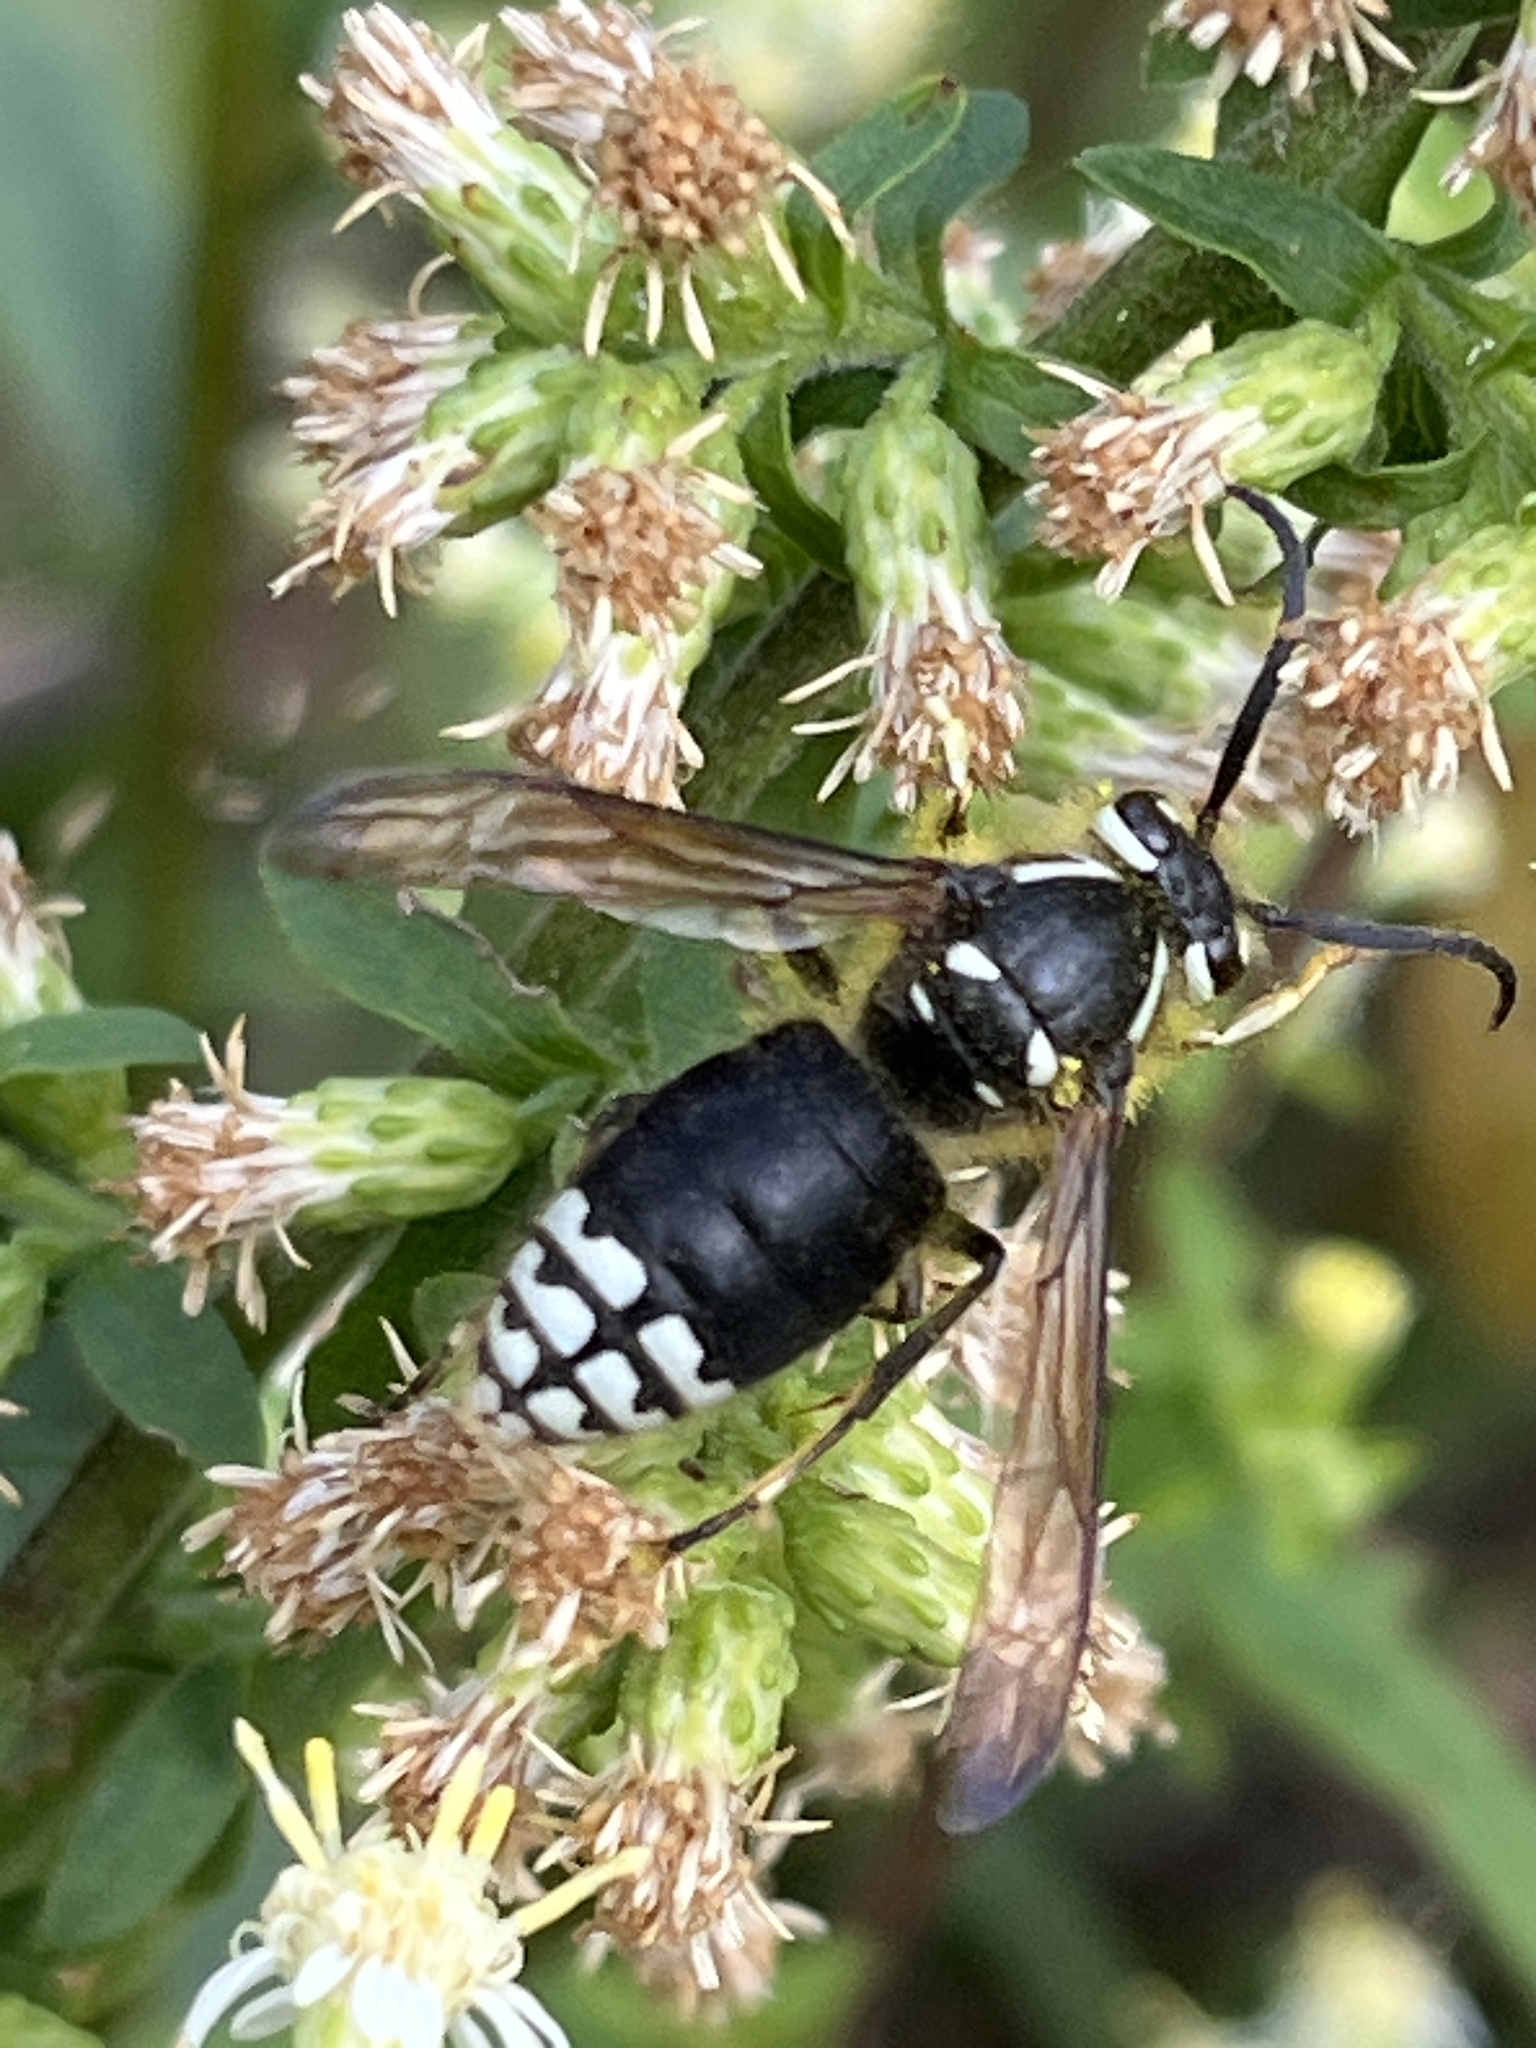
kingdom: Animalia
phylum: Arthropoda
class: Insecta
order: Hymenoptera
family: Vespidae
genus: Dolichovespula
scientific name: Dolichovespula maculata
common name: Bald-faced hornet
